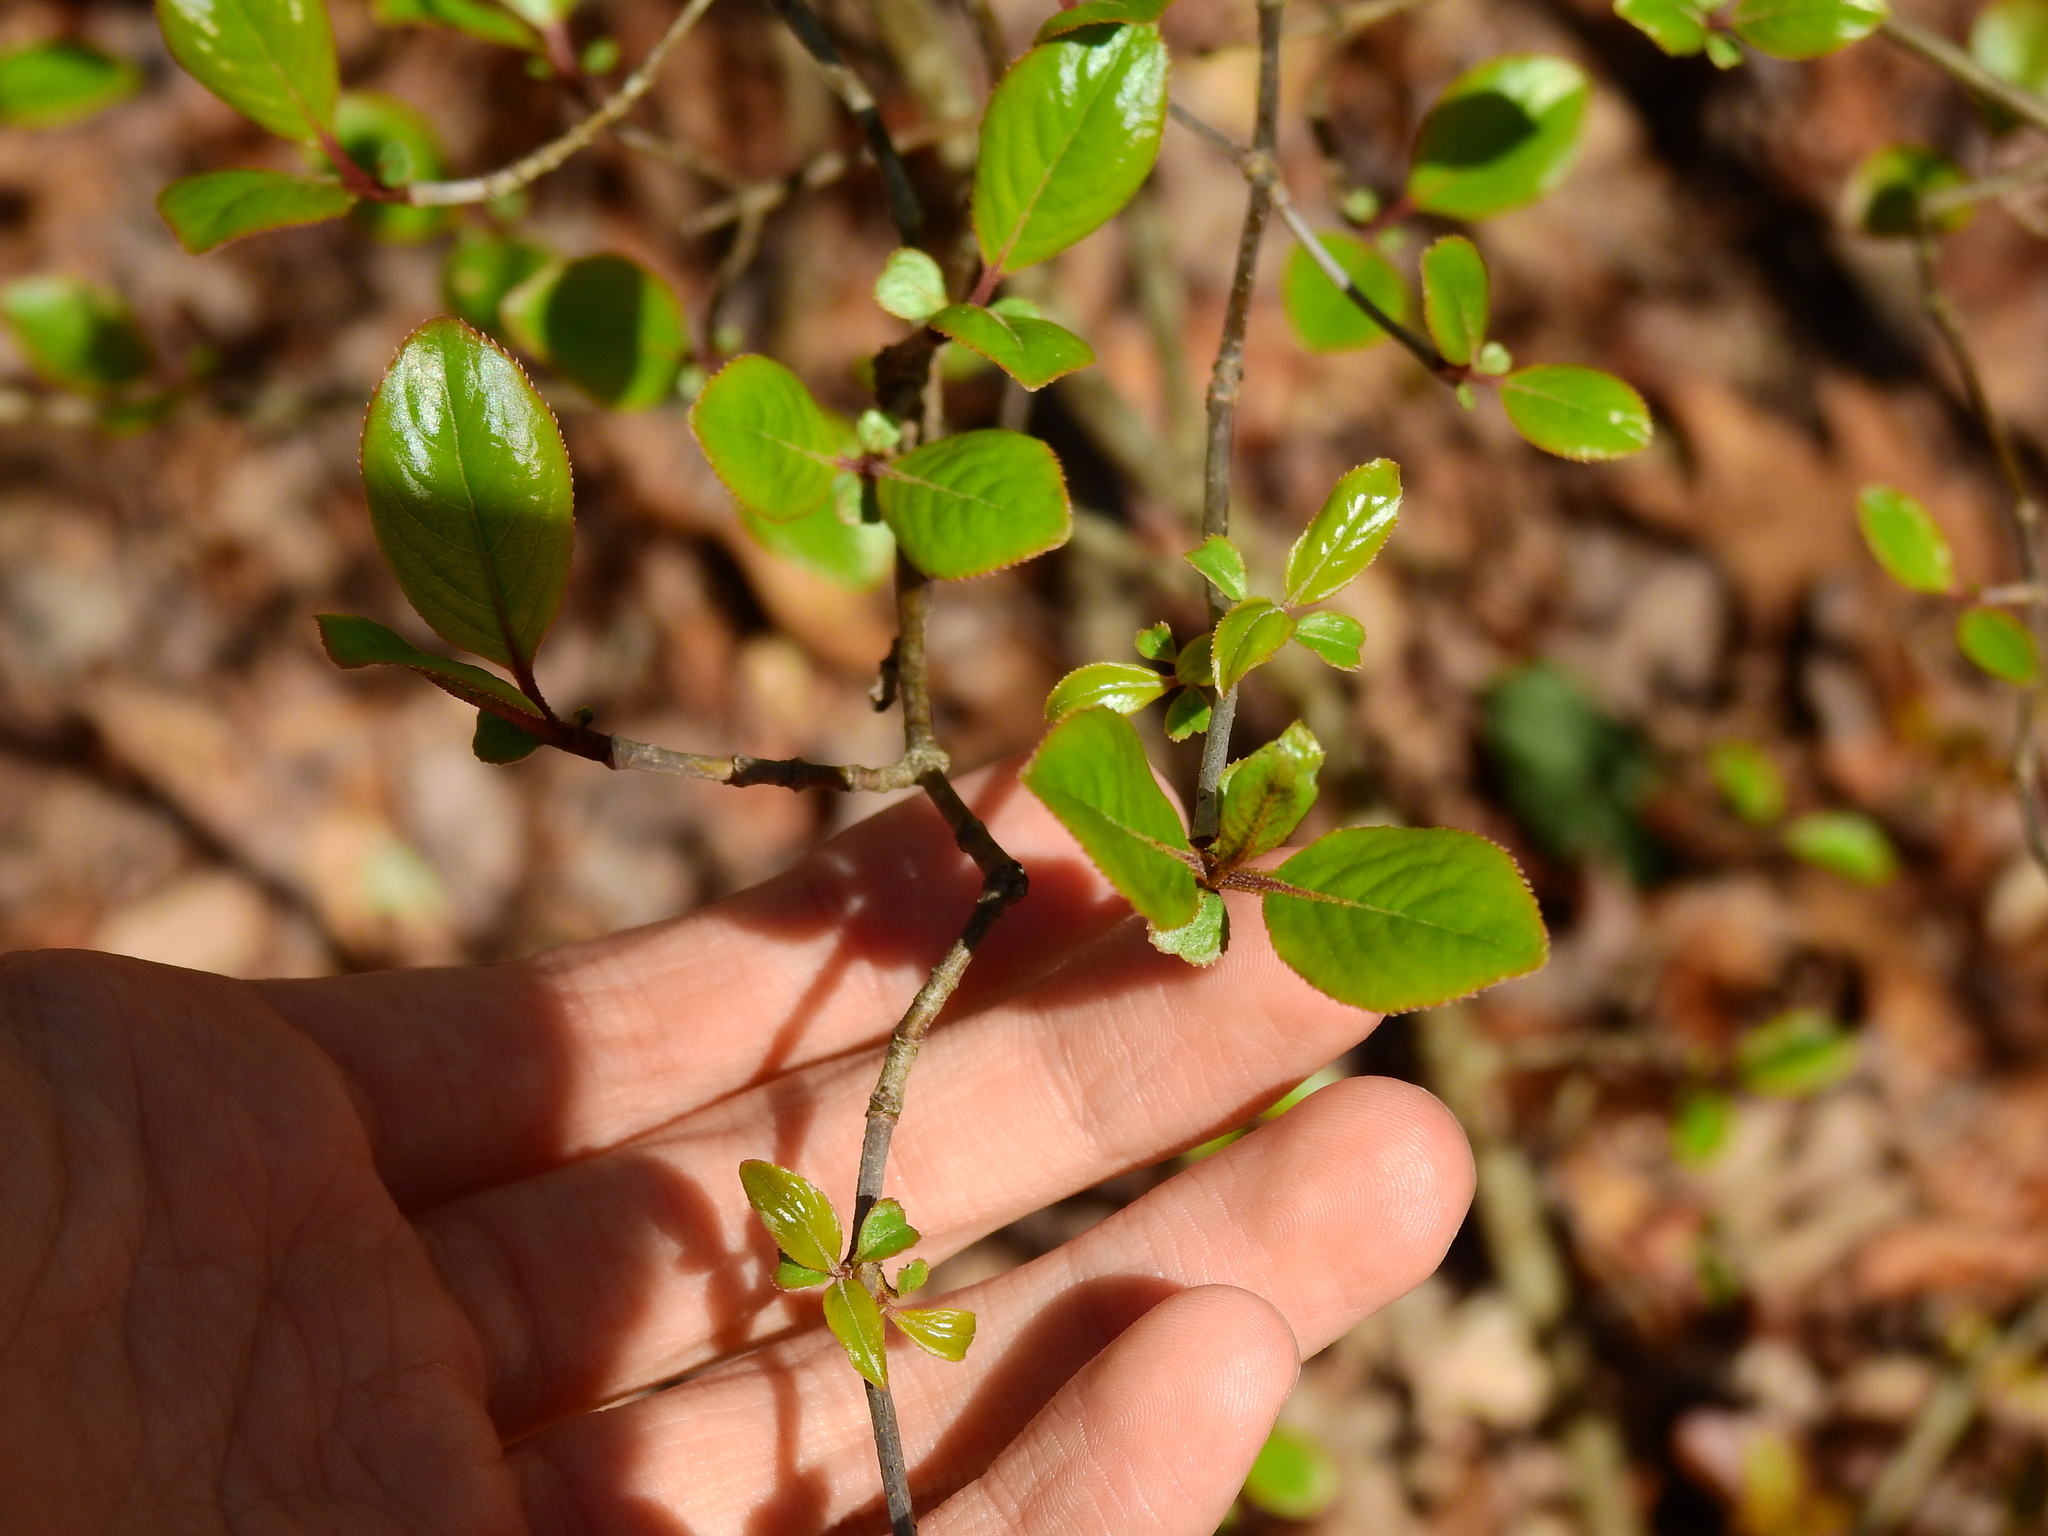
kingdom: Plantae
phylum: Tracheophyta
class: Magnoliopsida
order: Dipsacales
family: Viburnaceae
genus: Viburnum
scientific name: Viburnum rufidulum
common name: Blue haw
